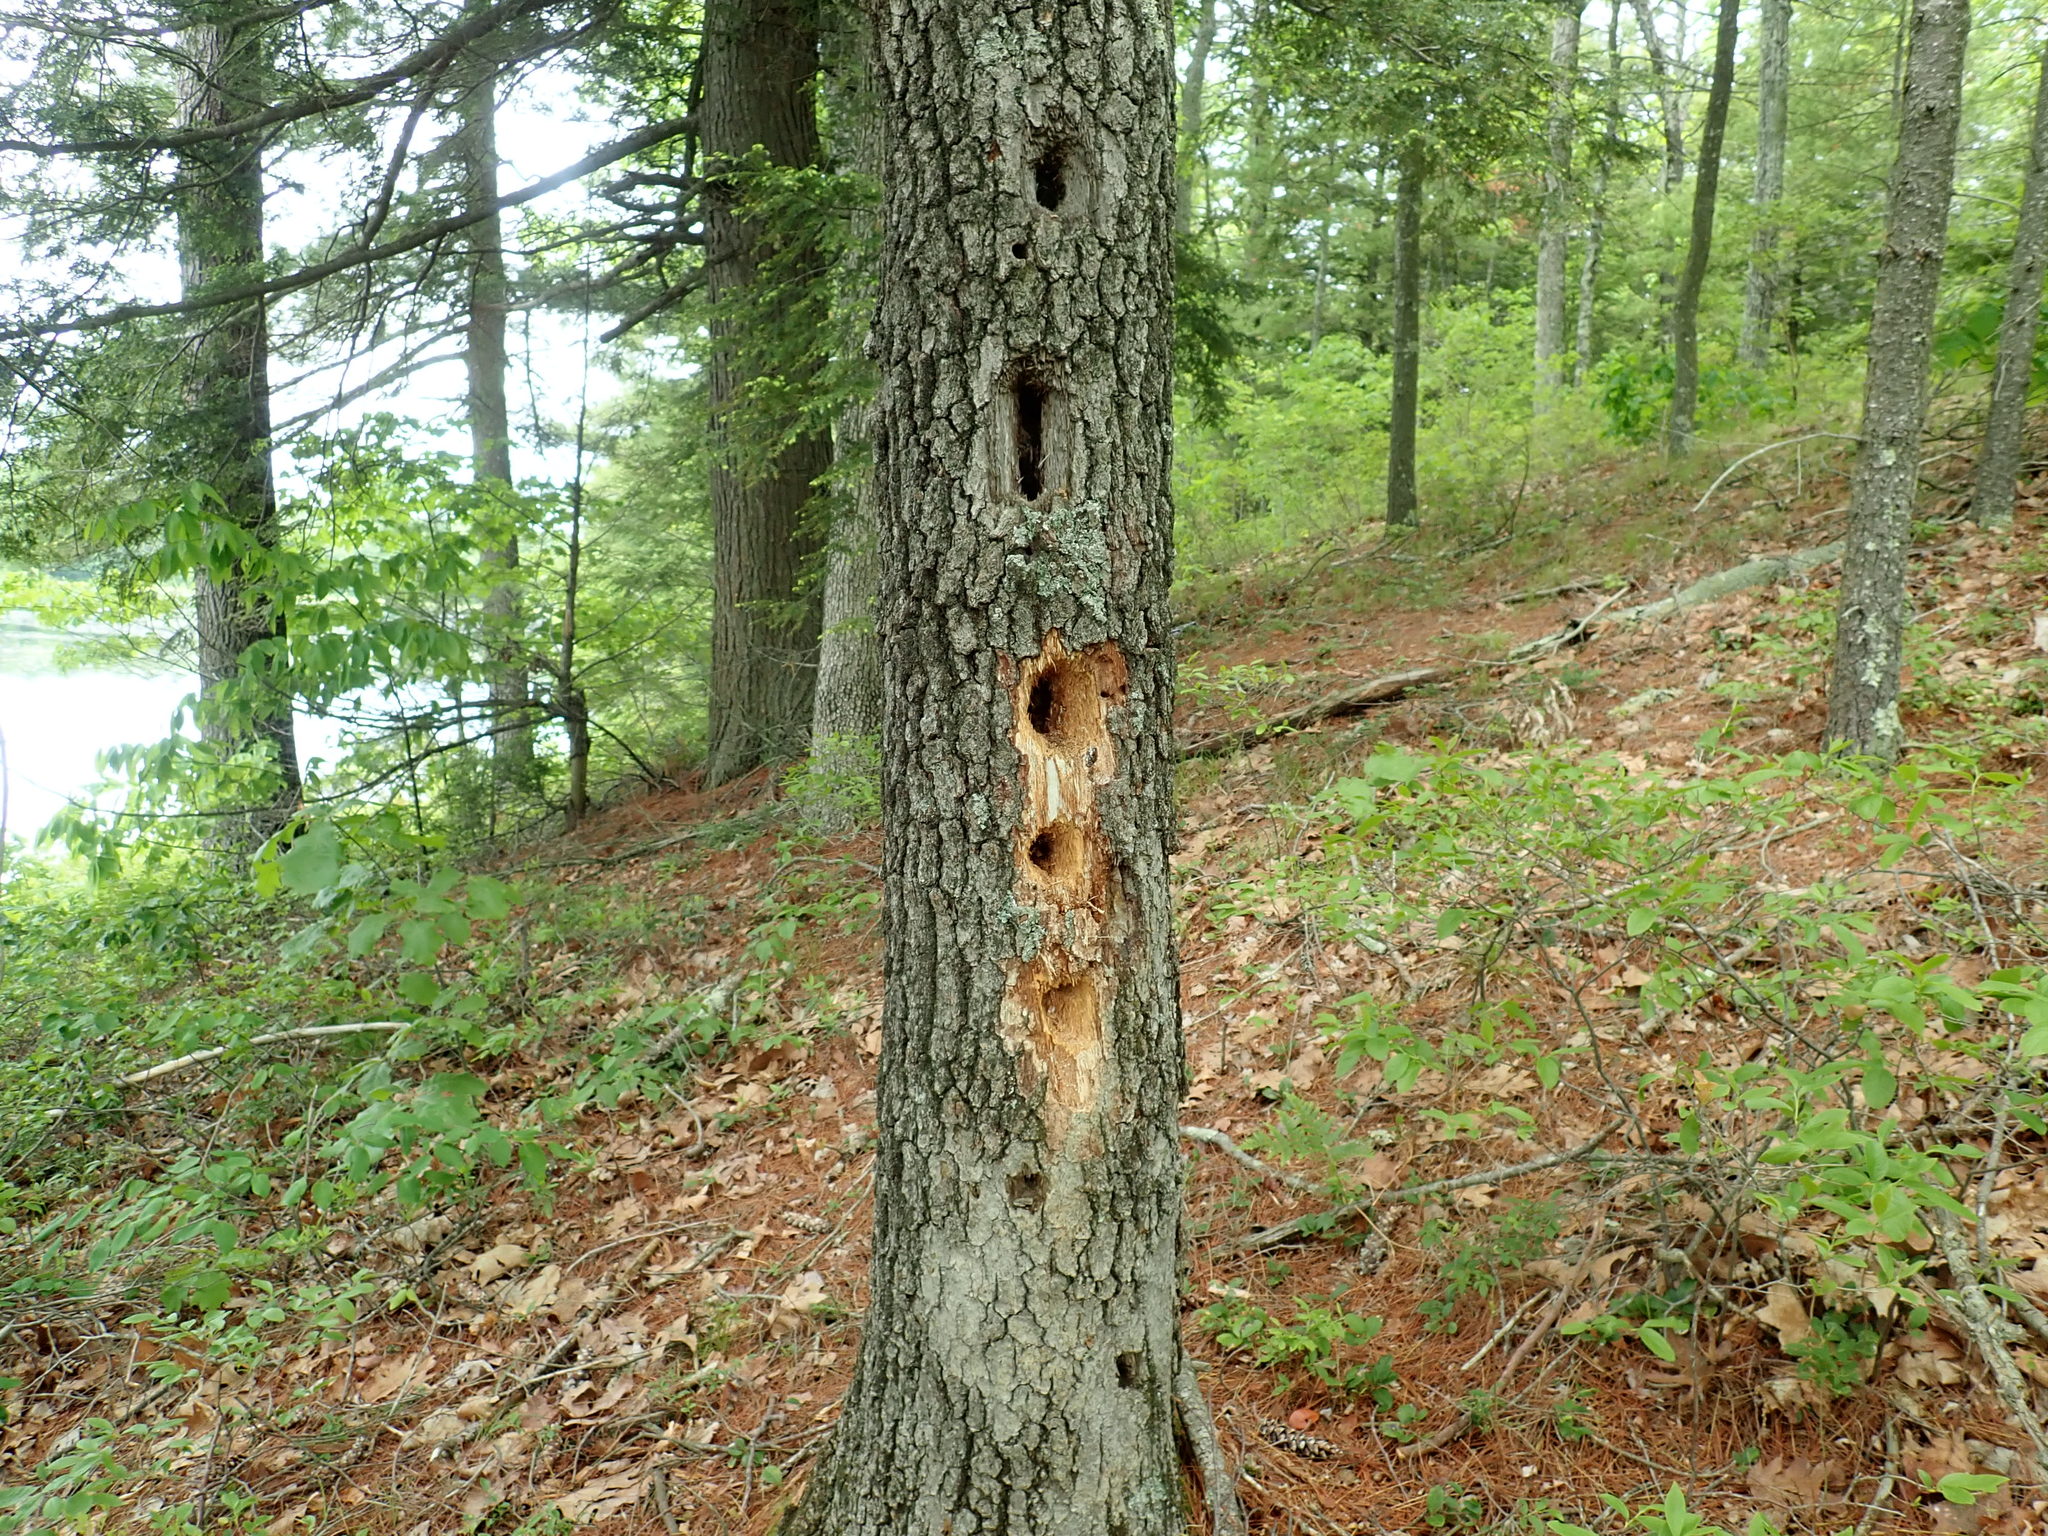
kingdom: Animalia
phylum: Chordata
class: Aves
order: Piciformes
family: Picidae
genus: Dryocopus
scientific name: Dryocopus pileatus
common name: Pileated woodpecker
